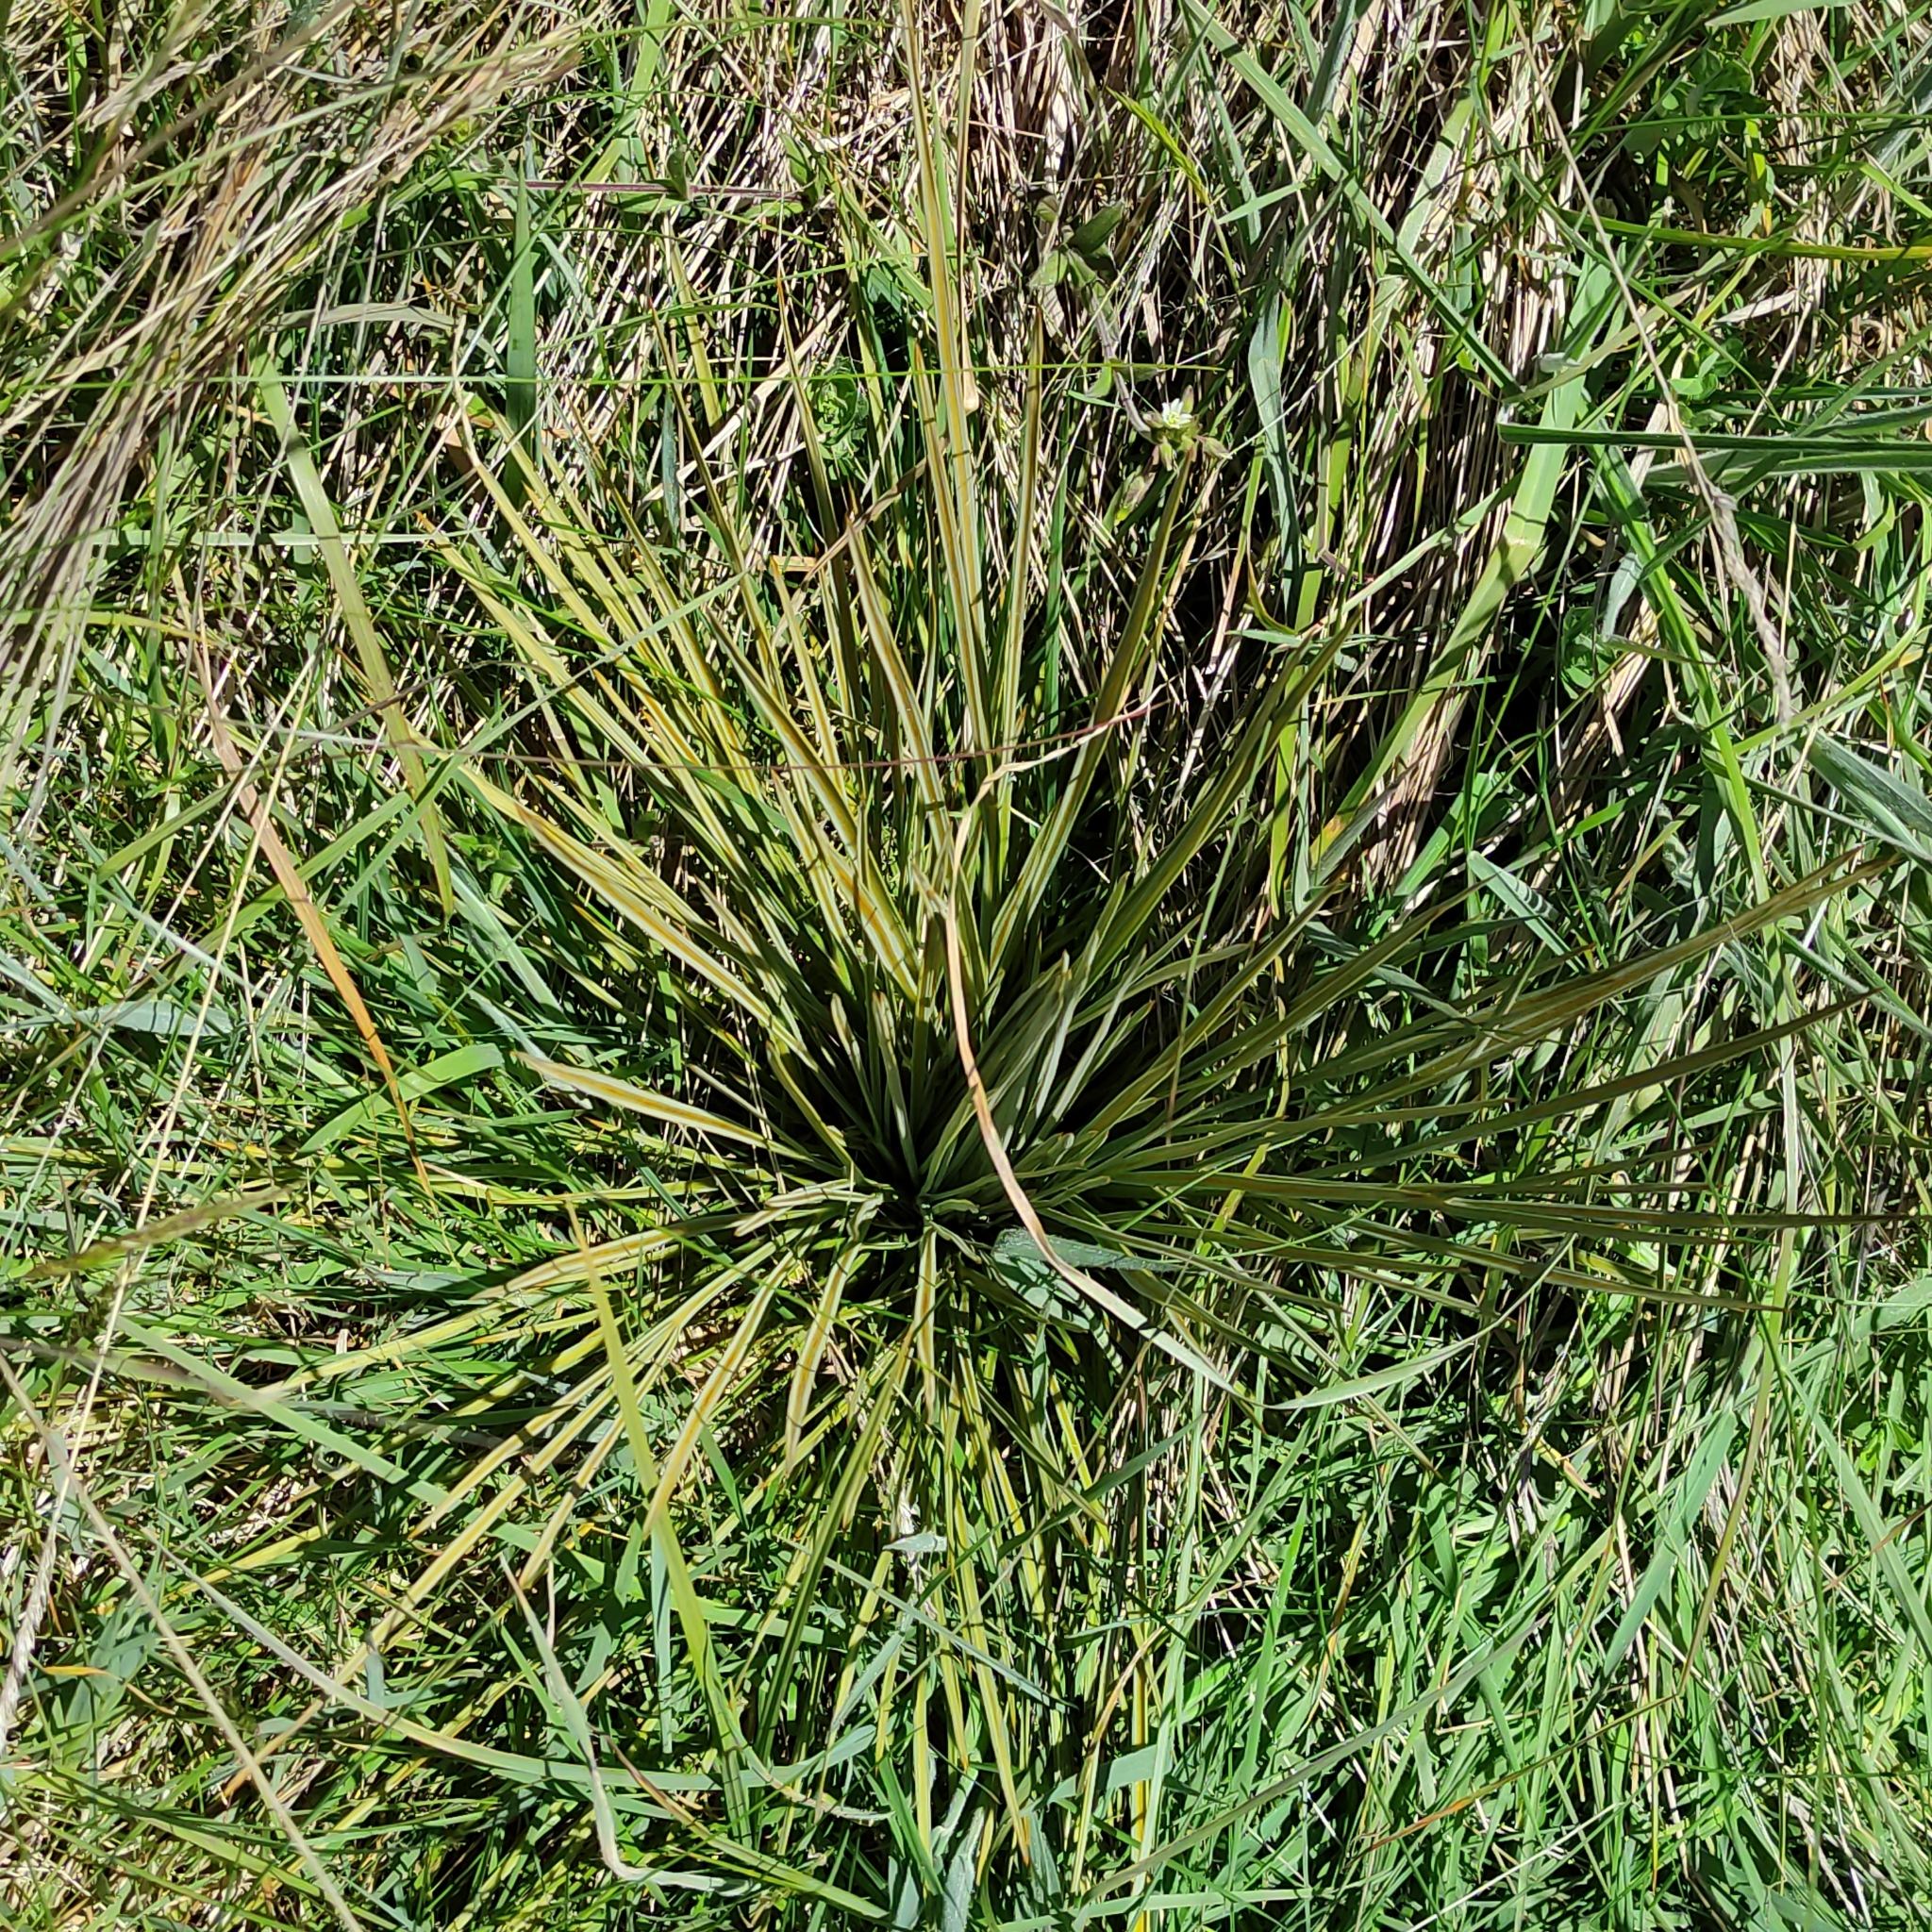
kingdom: Plantae
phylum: Tracheophyta
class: Magnoliopsida
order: Apiales
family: Apiaceae
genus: Aciphylla
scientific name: Aciphylla subflabellata
